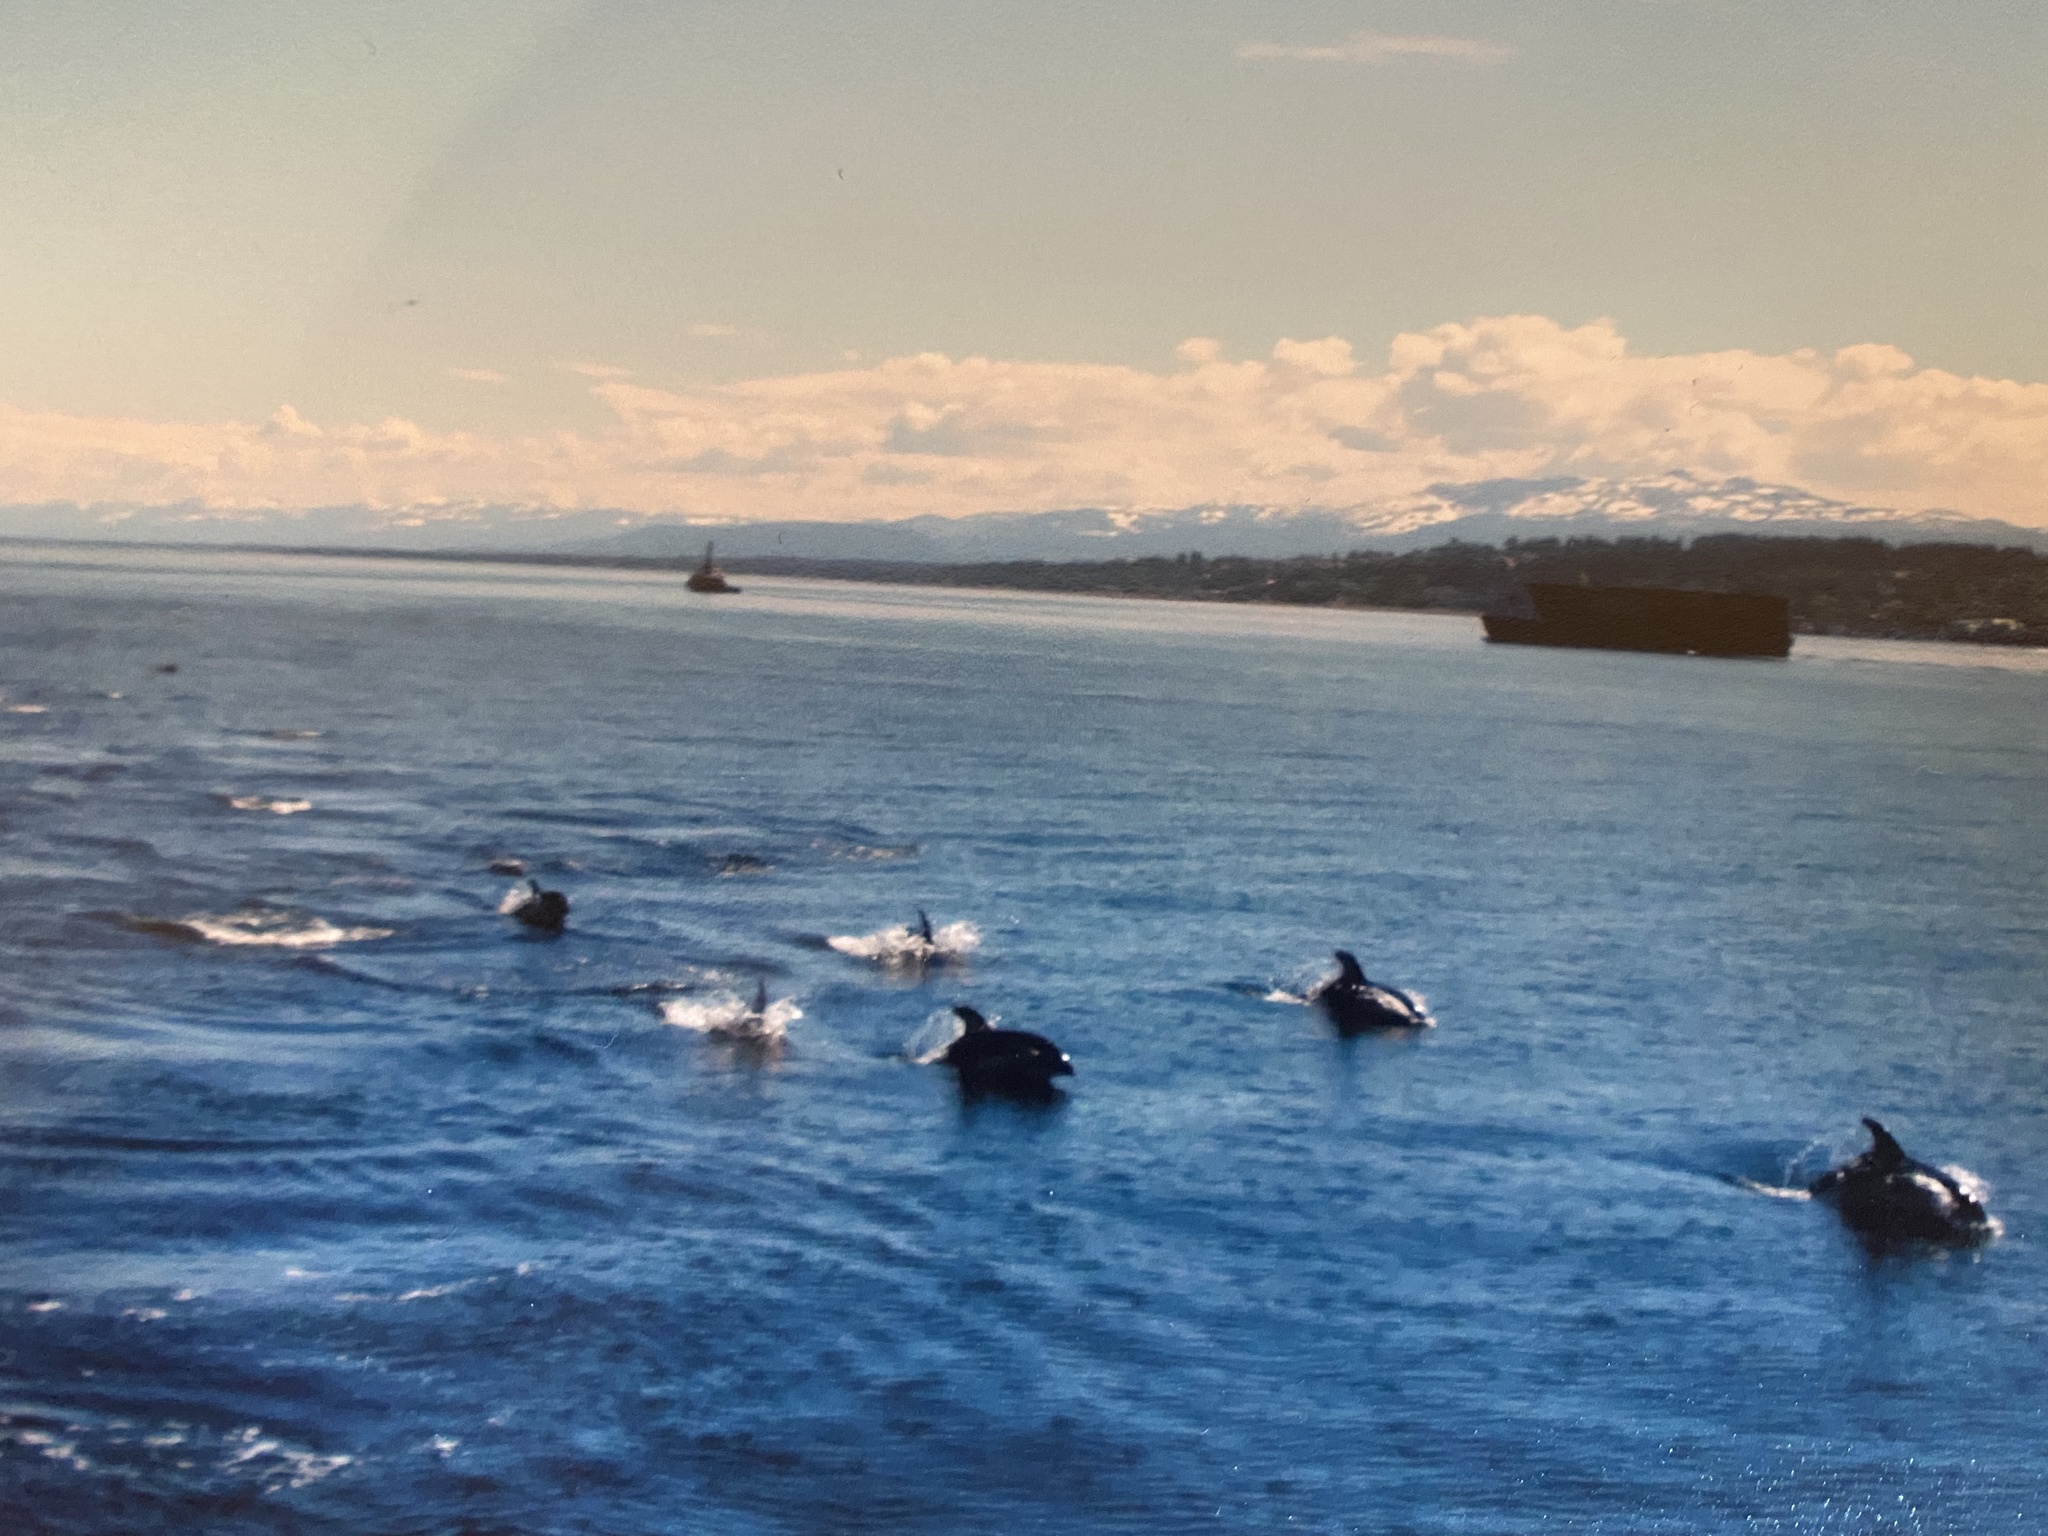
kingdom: Animalia
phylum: Chordata
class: Mammalia
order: Cetacea
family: Delphinidae
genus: Lagenorhynchus
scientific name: Lagenorhynchus obliquidens
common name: Pacific white-sided dolphin
